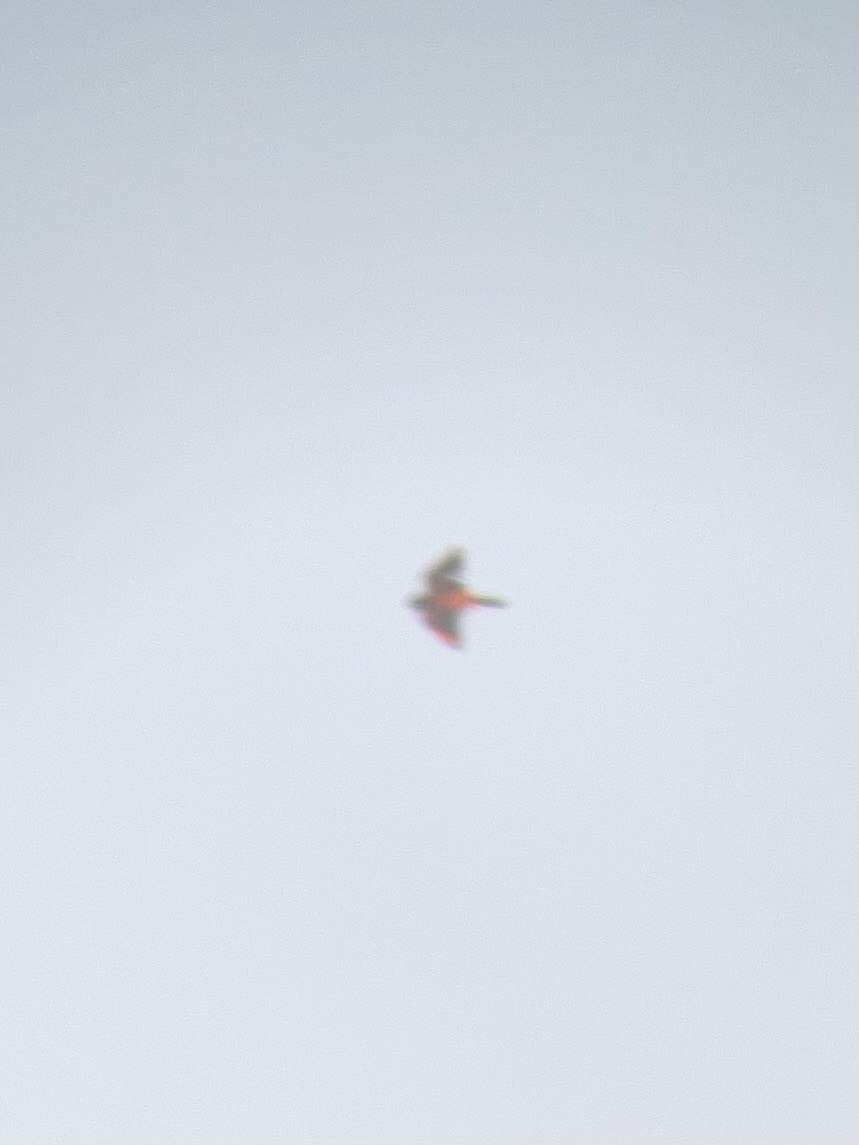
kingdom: Animalia
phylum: Chordata
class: Aves
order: Falconiformes
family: Falconidae
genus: Falco
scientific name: Falco peregrinus
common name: Peregrine falcon
